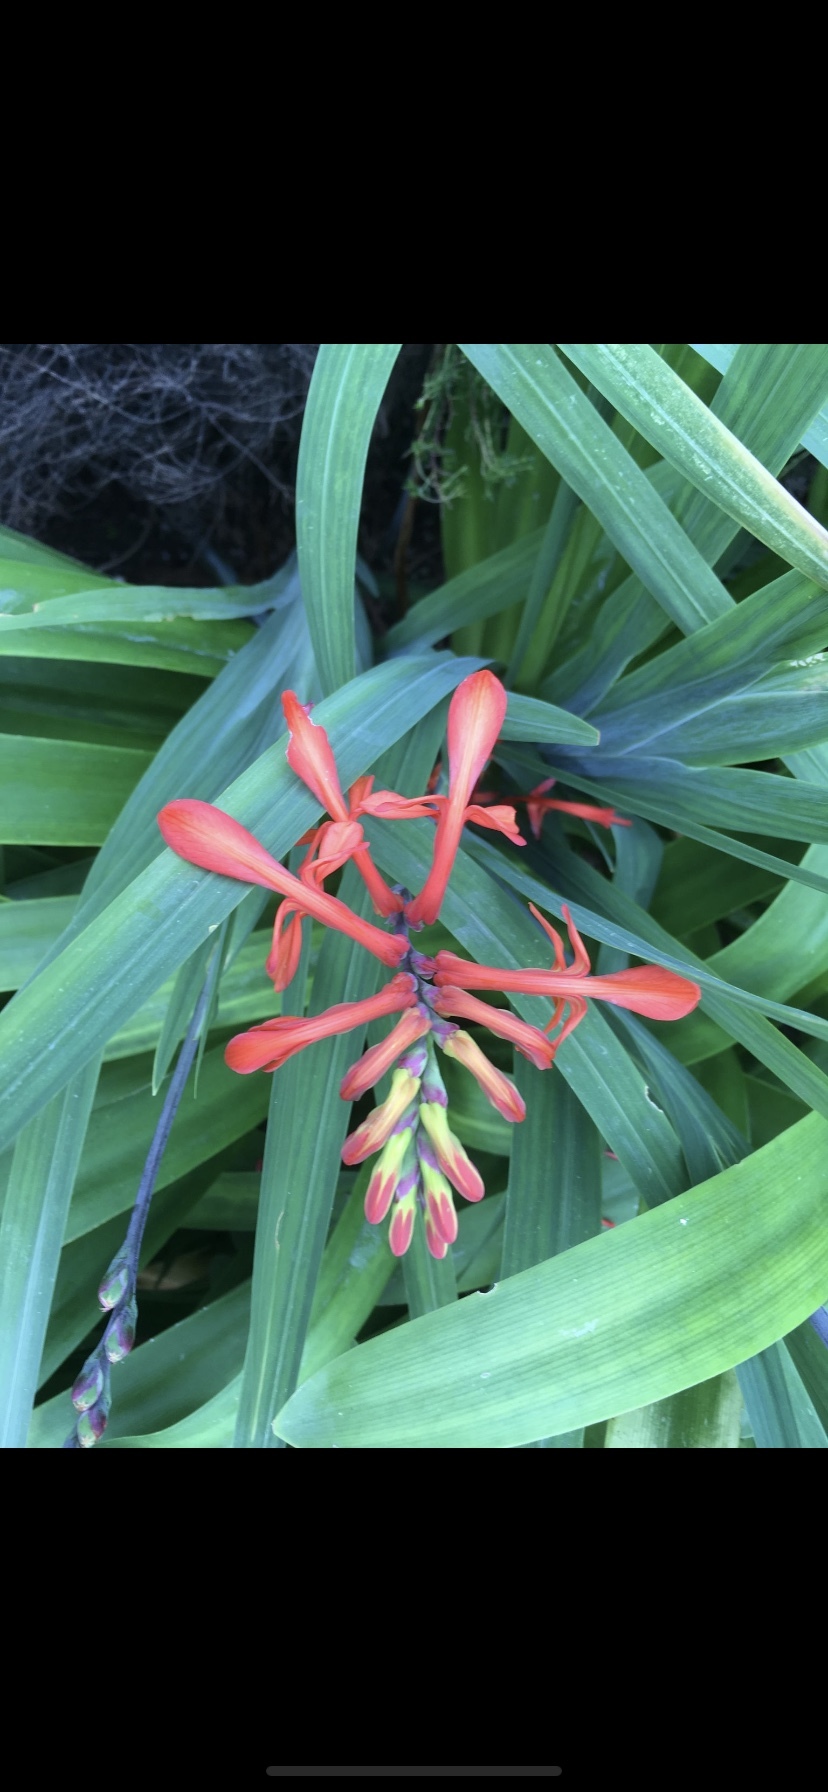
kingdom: Plantae
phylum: Tracheophyta
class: Liliopsida
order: Asparagales
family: Iridaceae
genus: Chasmanthe
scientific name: Chasmanthe aethiopica
